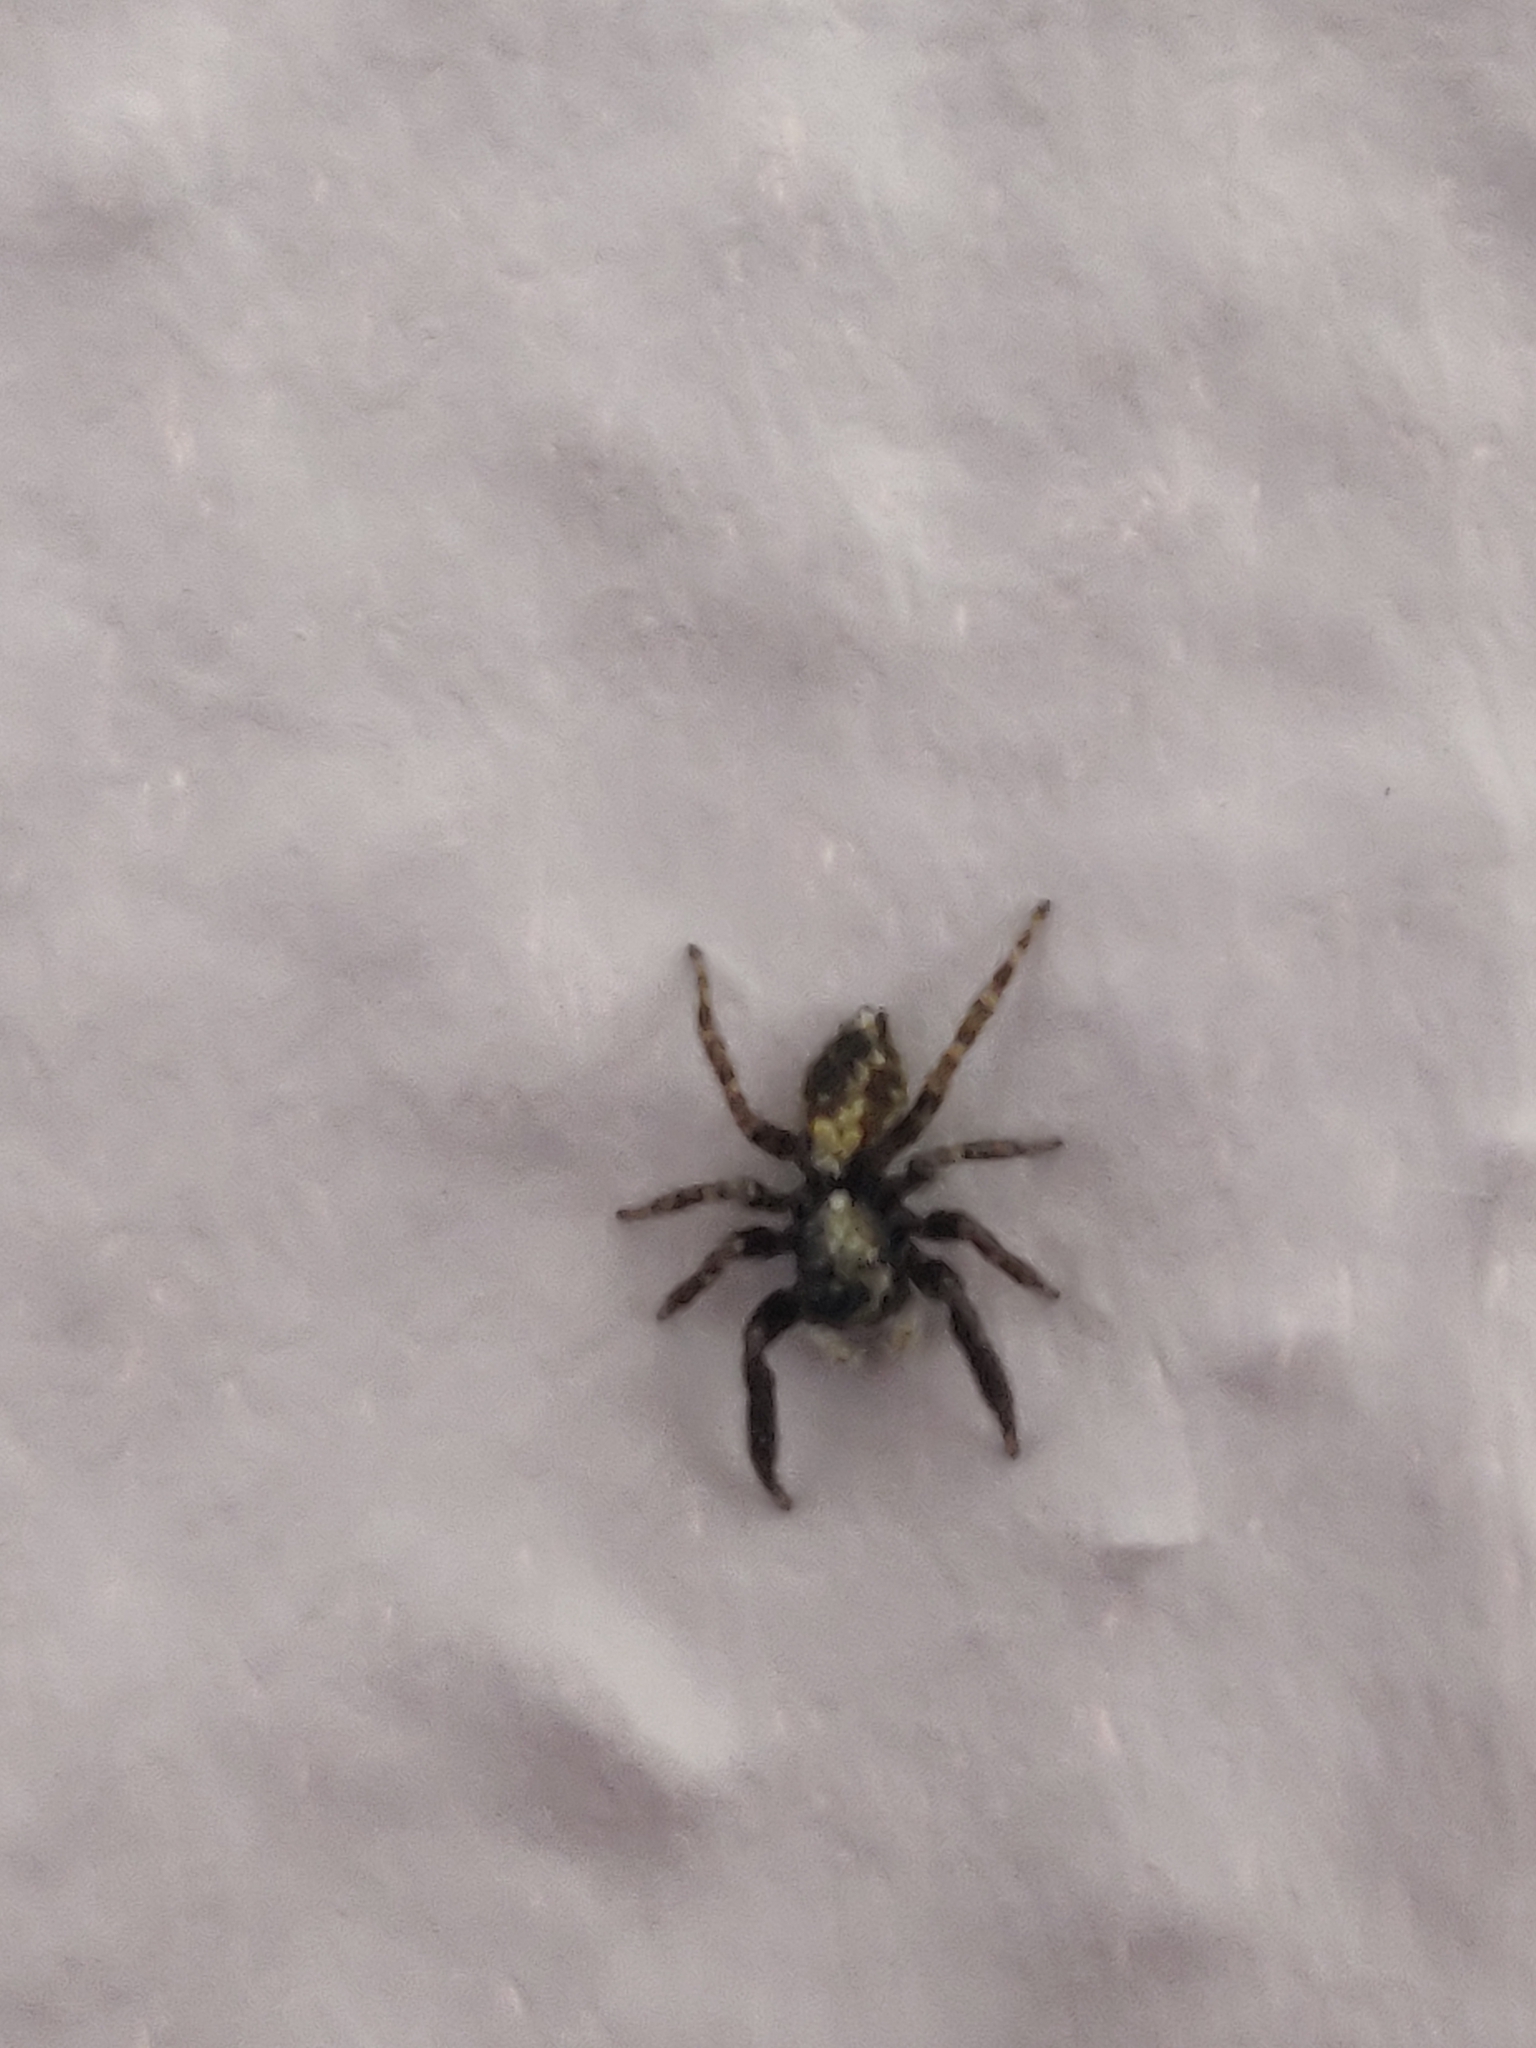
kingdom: Animalia
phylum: Arthropoda
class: Arachnida
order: Araneae
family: Salticidae
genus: Pseudeuophrys
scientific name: Pseudeuophrys lanigera
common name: Jumping spider
